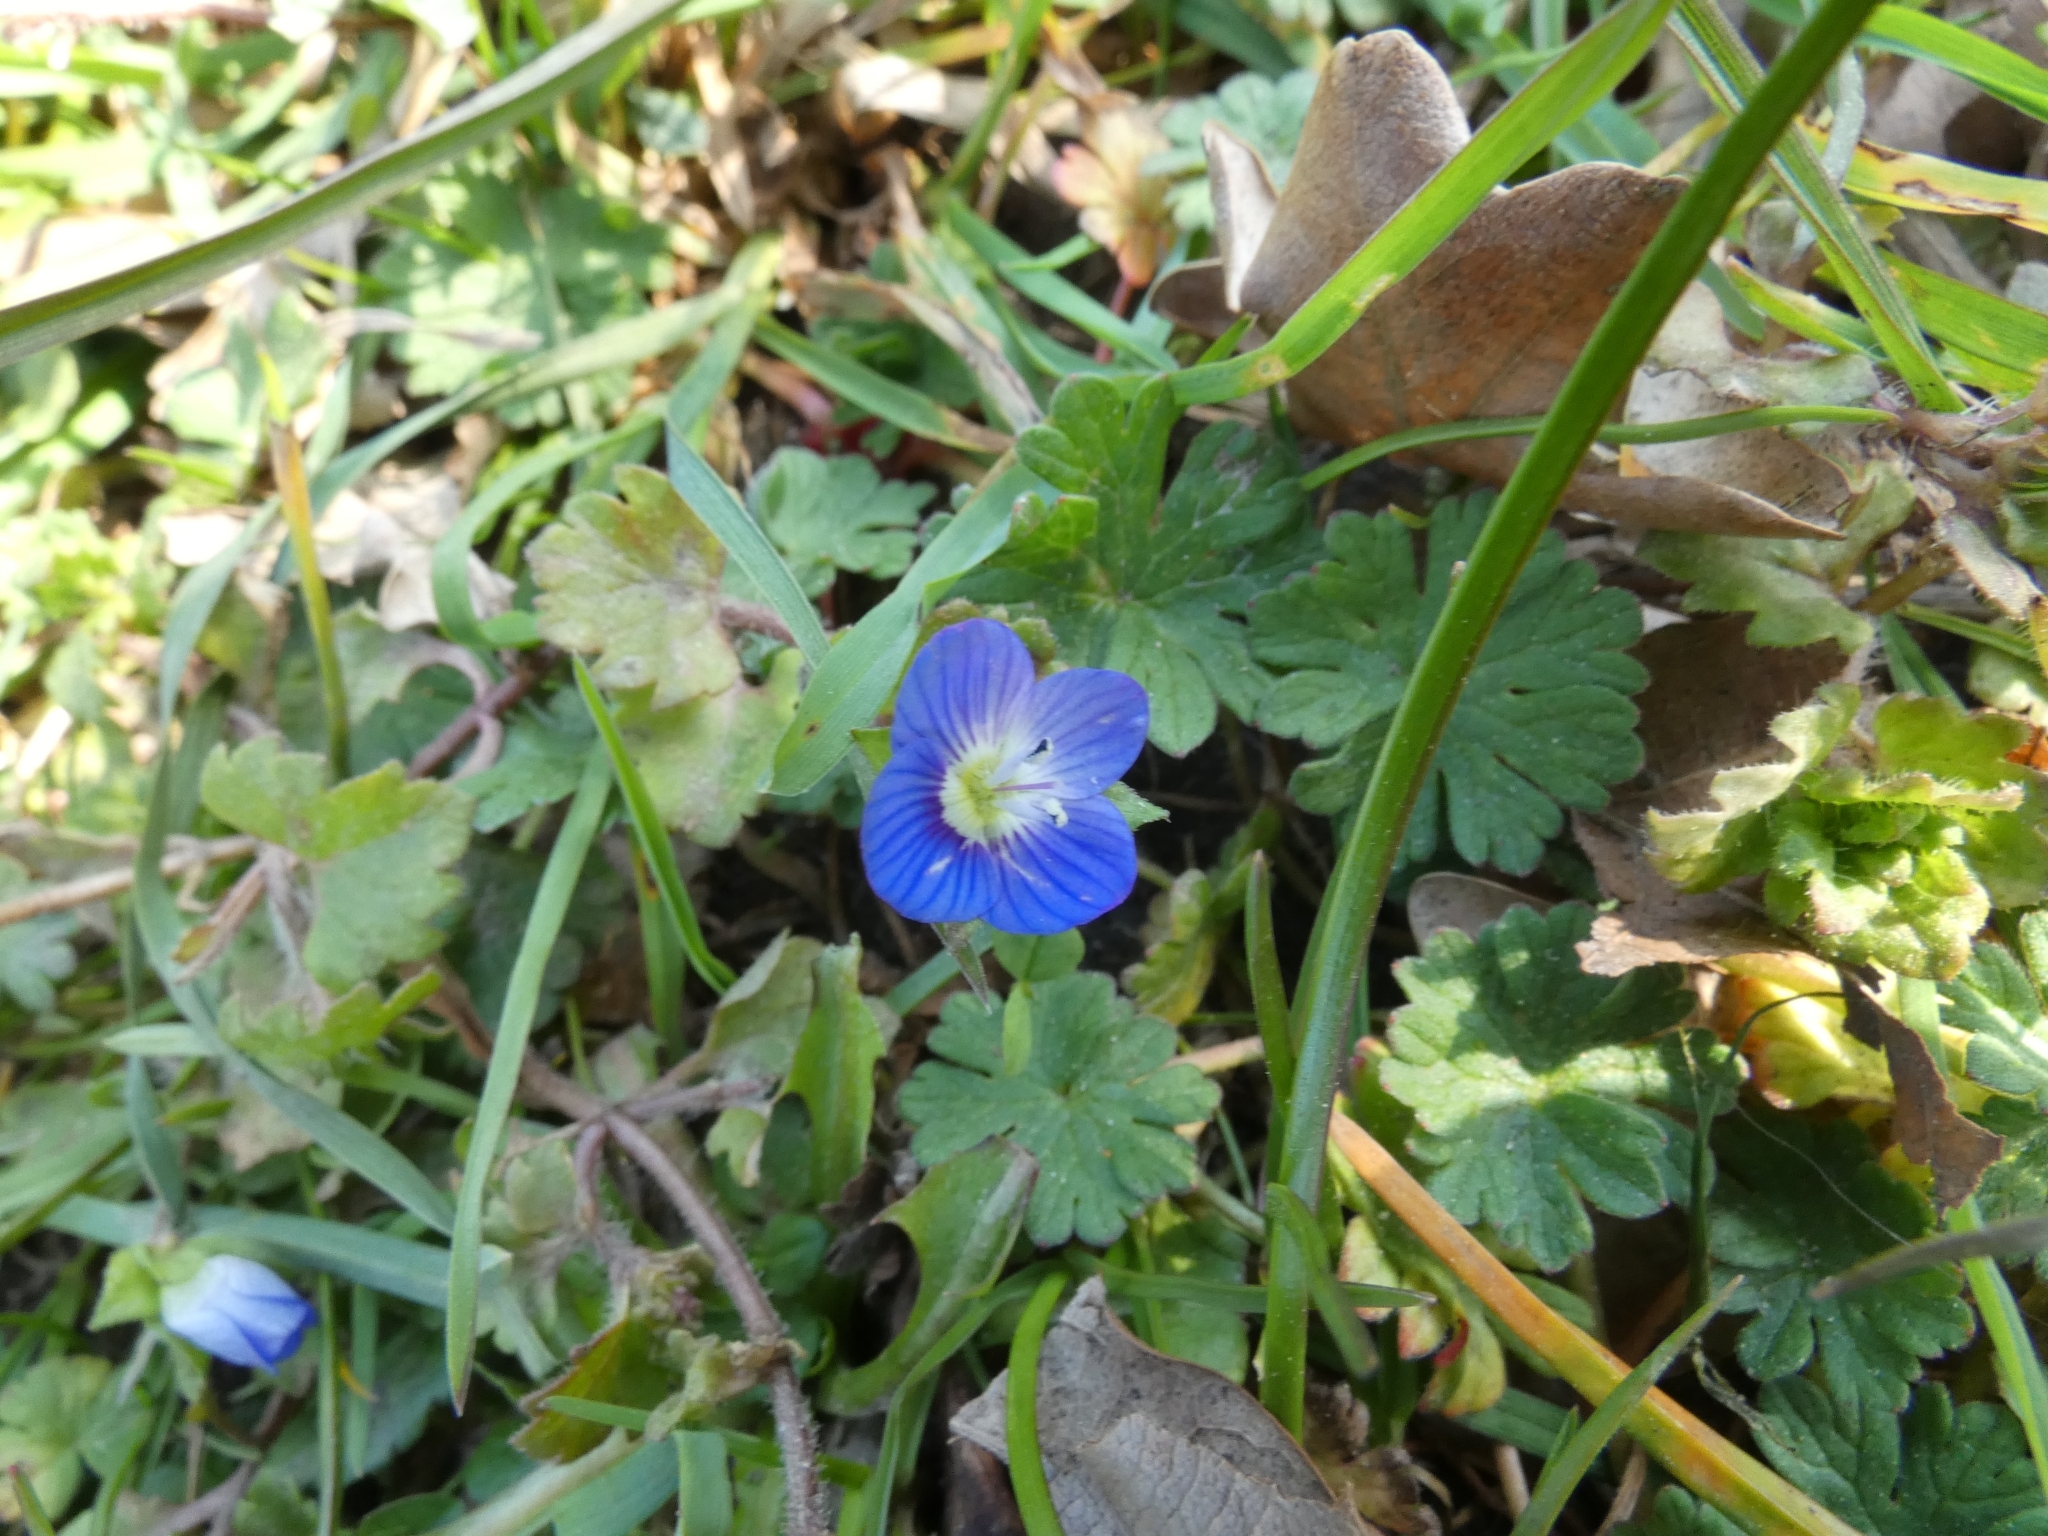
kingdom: Plantae
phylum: Tracheophyta
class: Magnoliopsida
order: Lamiales
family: Plantaginaceae
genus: Veronica
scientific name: Veronica persica
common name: Common field-speedwell
